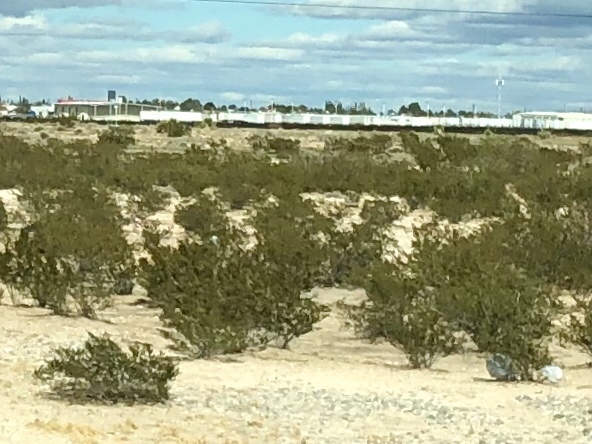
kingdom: Plantae
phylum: Tracheophyta
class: Magnoliopsida
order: Zygophyllales
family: Zygophyllaceae
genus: Larrea
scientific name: Larrea tridentata
